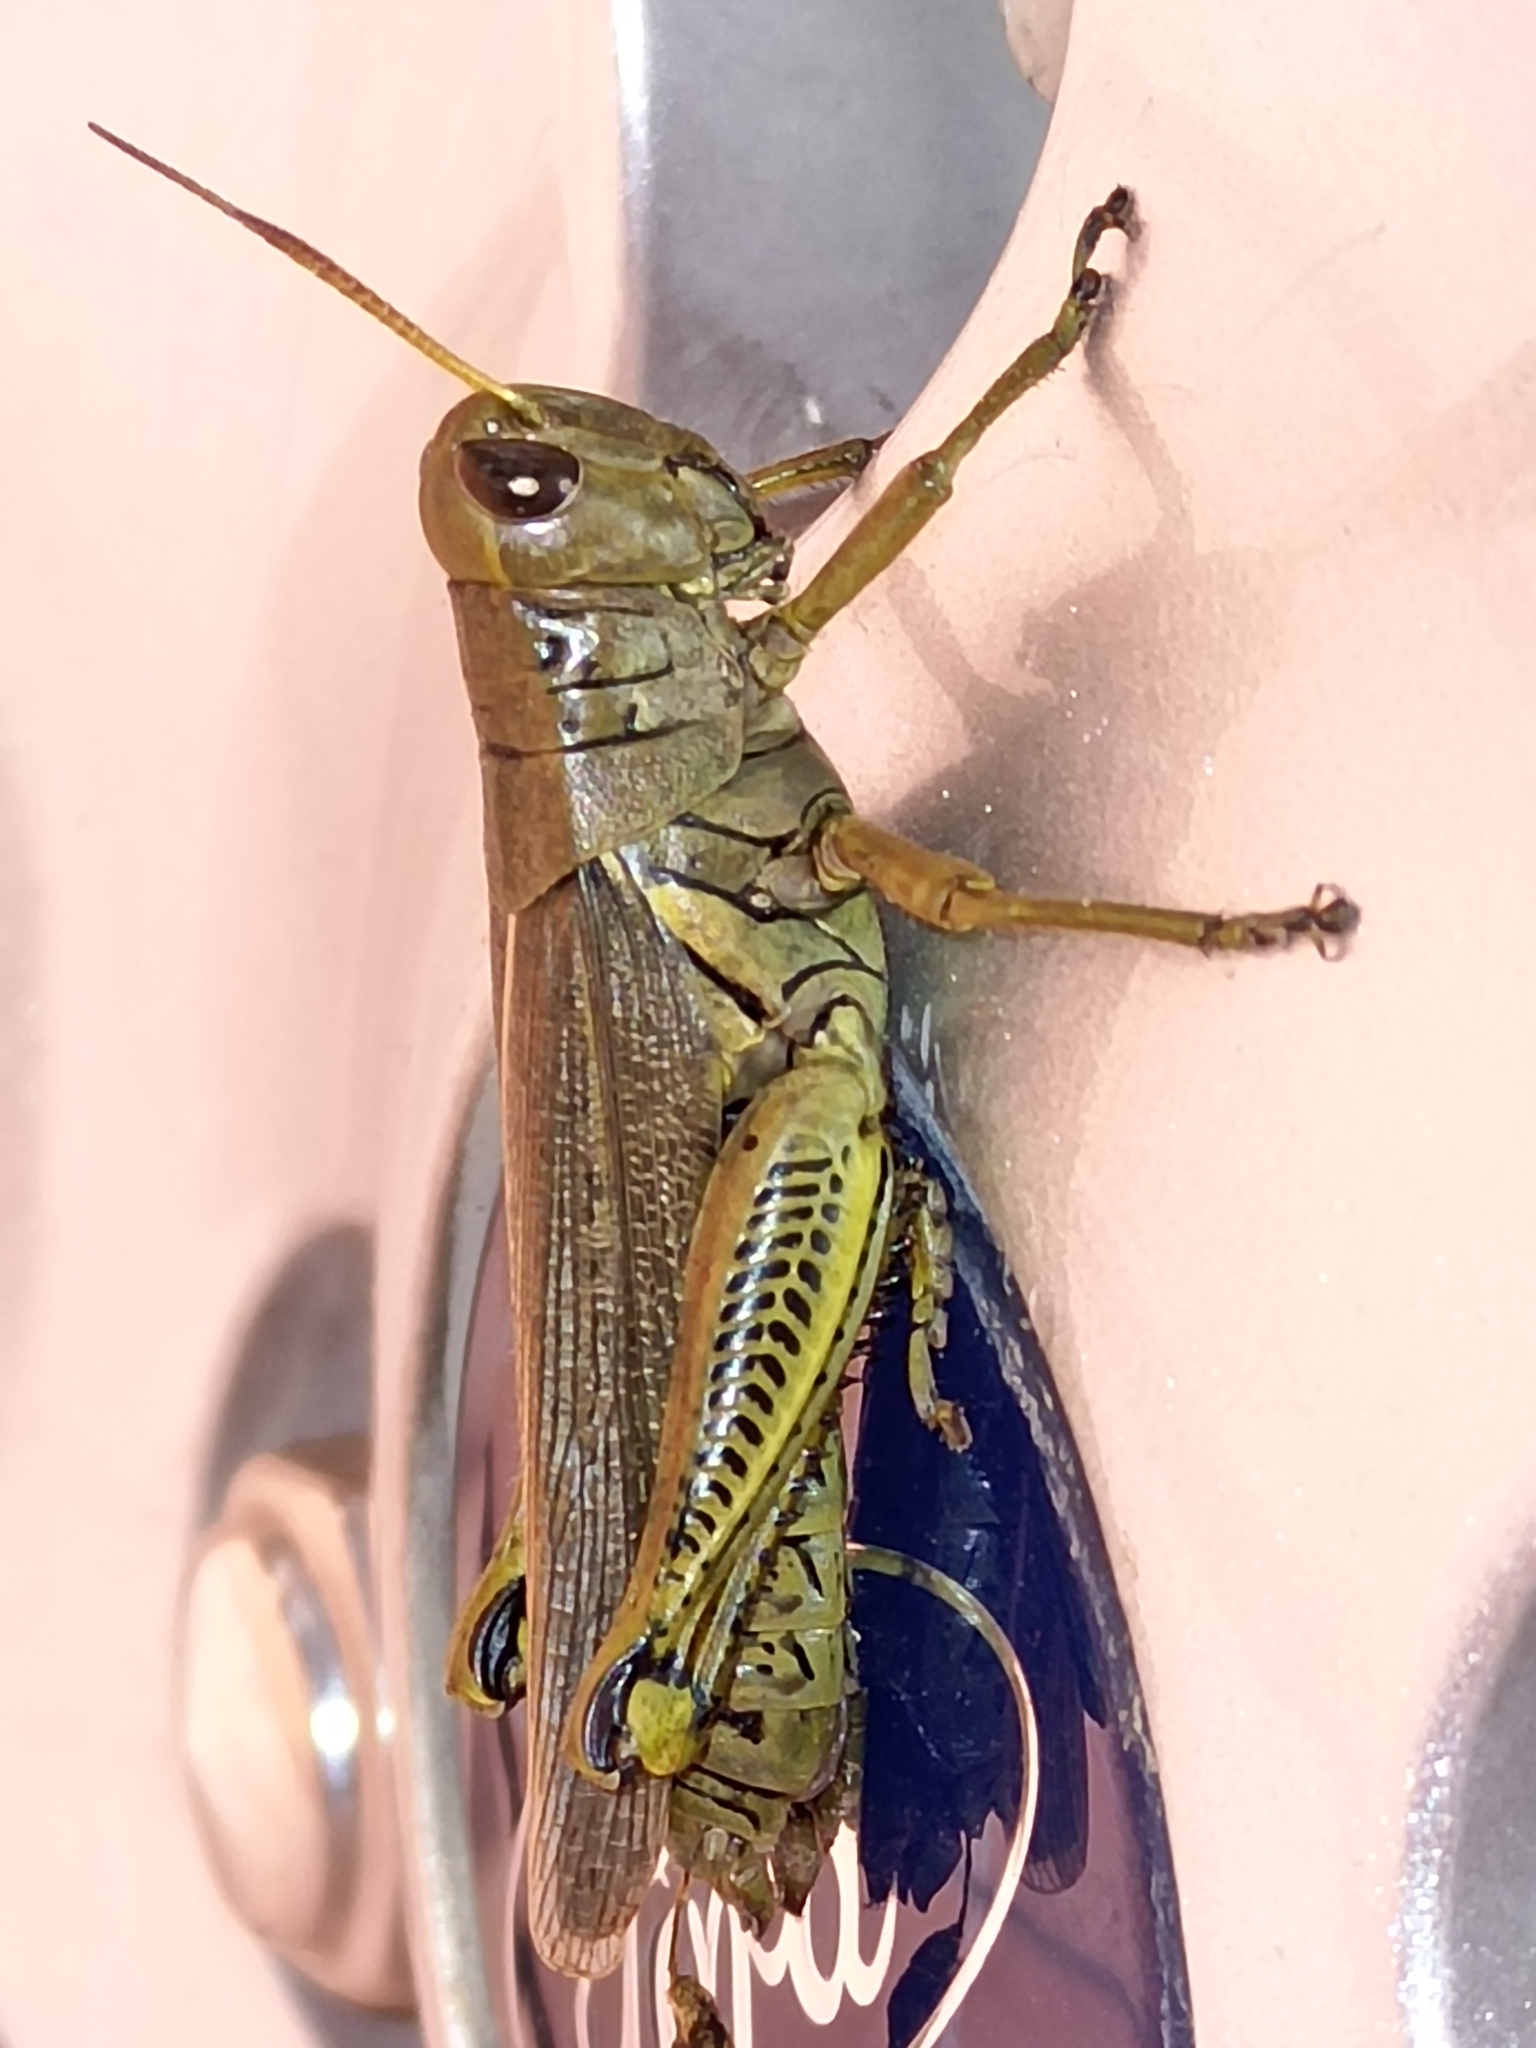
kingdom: Animalia
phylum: Arthropoda
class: Insecta
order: Orthoptera
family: Acrididae
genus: Melanoplus
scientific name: Melanoplus differentialis
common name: Differential grasshopper
